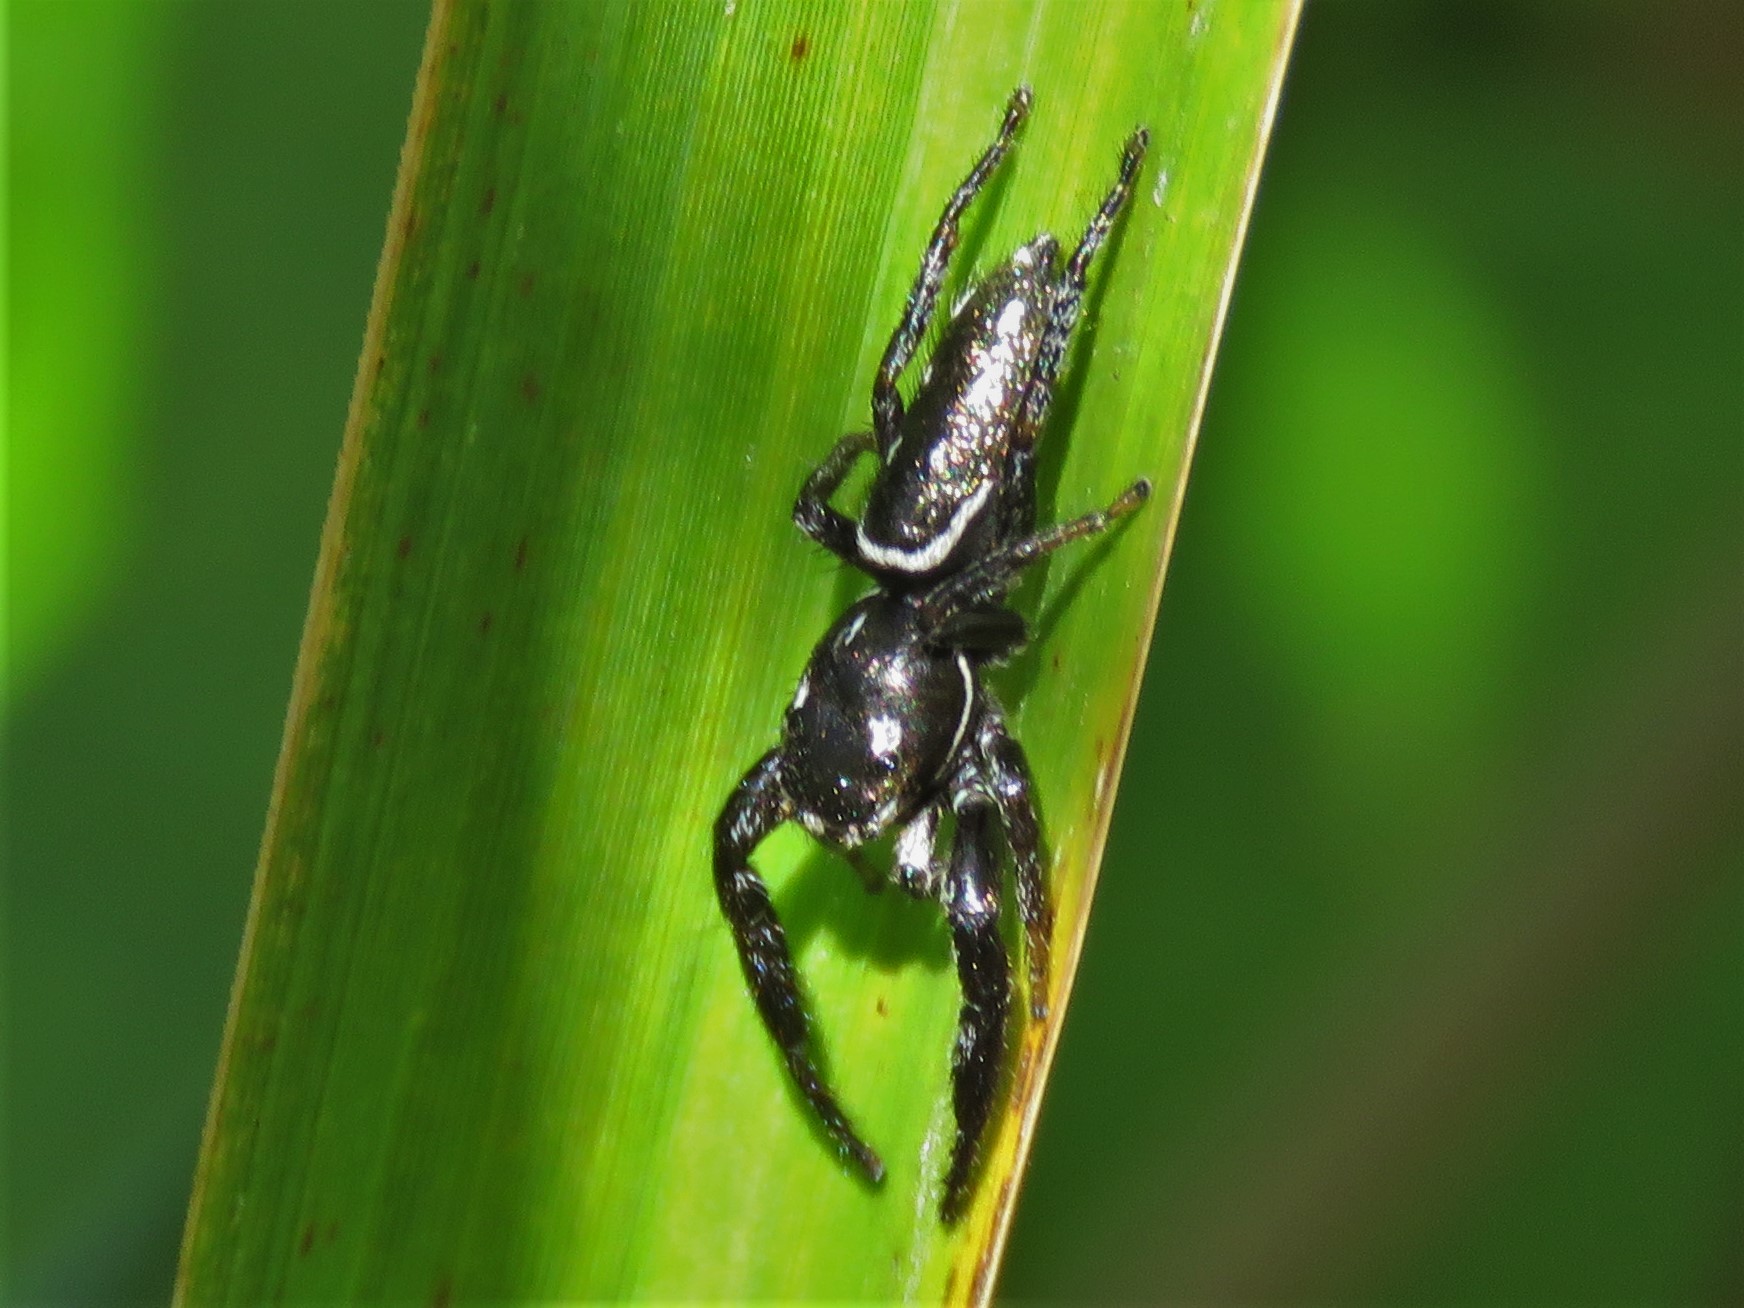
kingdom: Animalia
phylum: Arthropoda
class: Arachnida
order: Araneae
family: Salticidae
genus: Marpissa
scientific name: Marpissa formosa
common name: Short-bellied slender jumping spider
